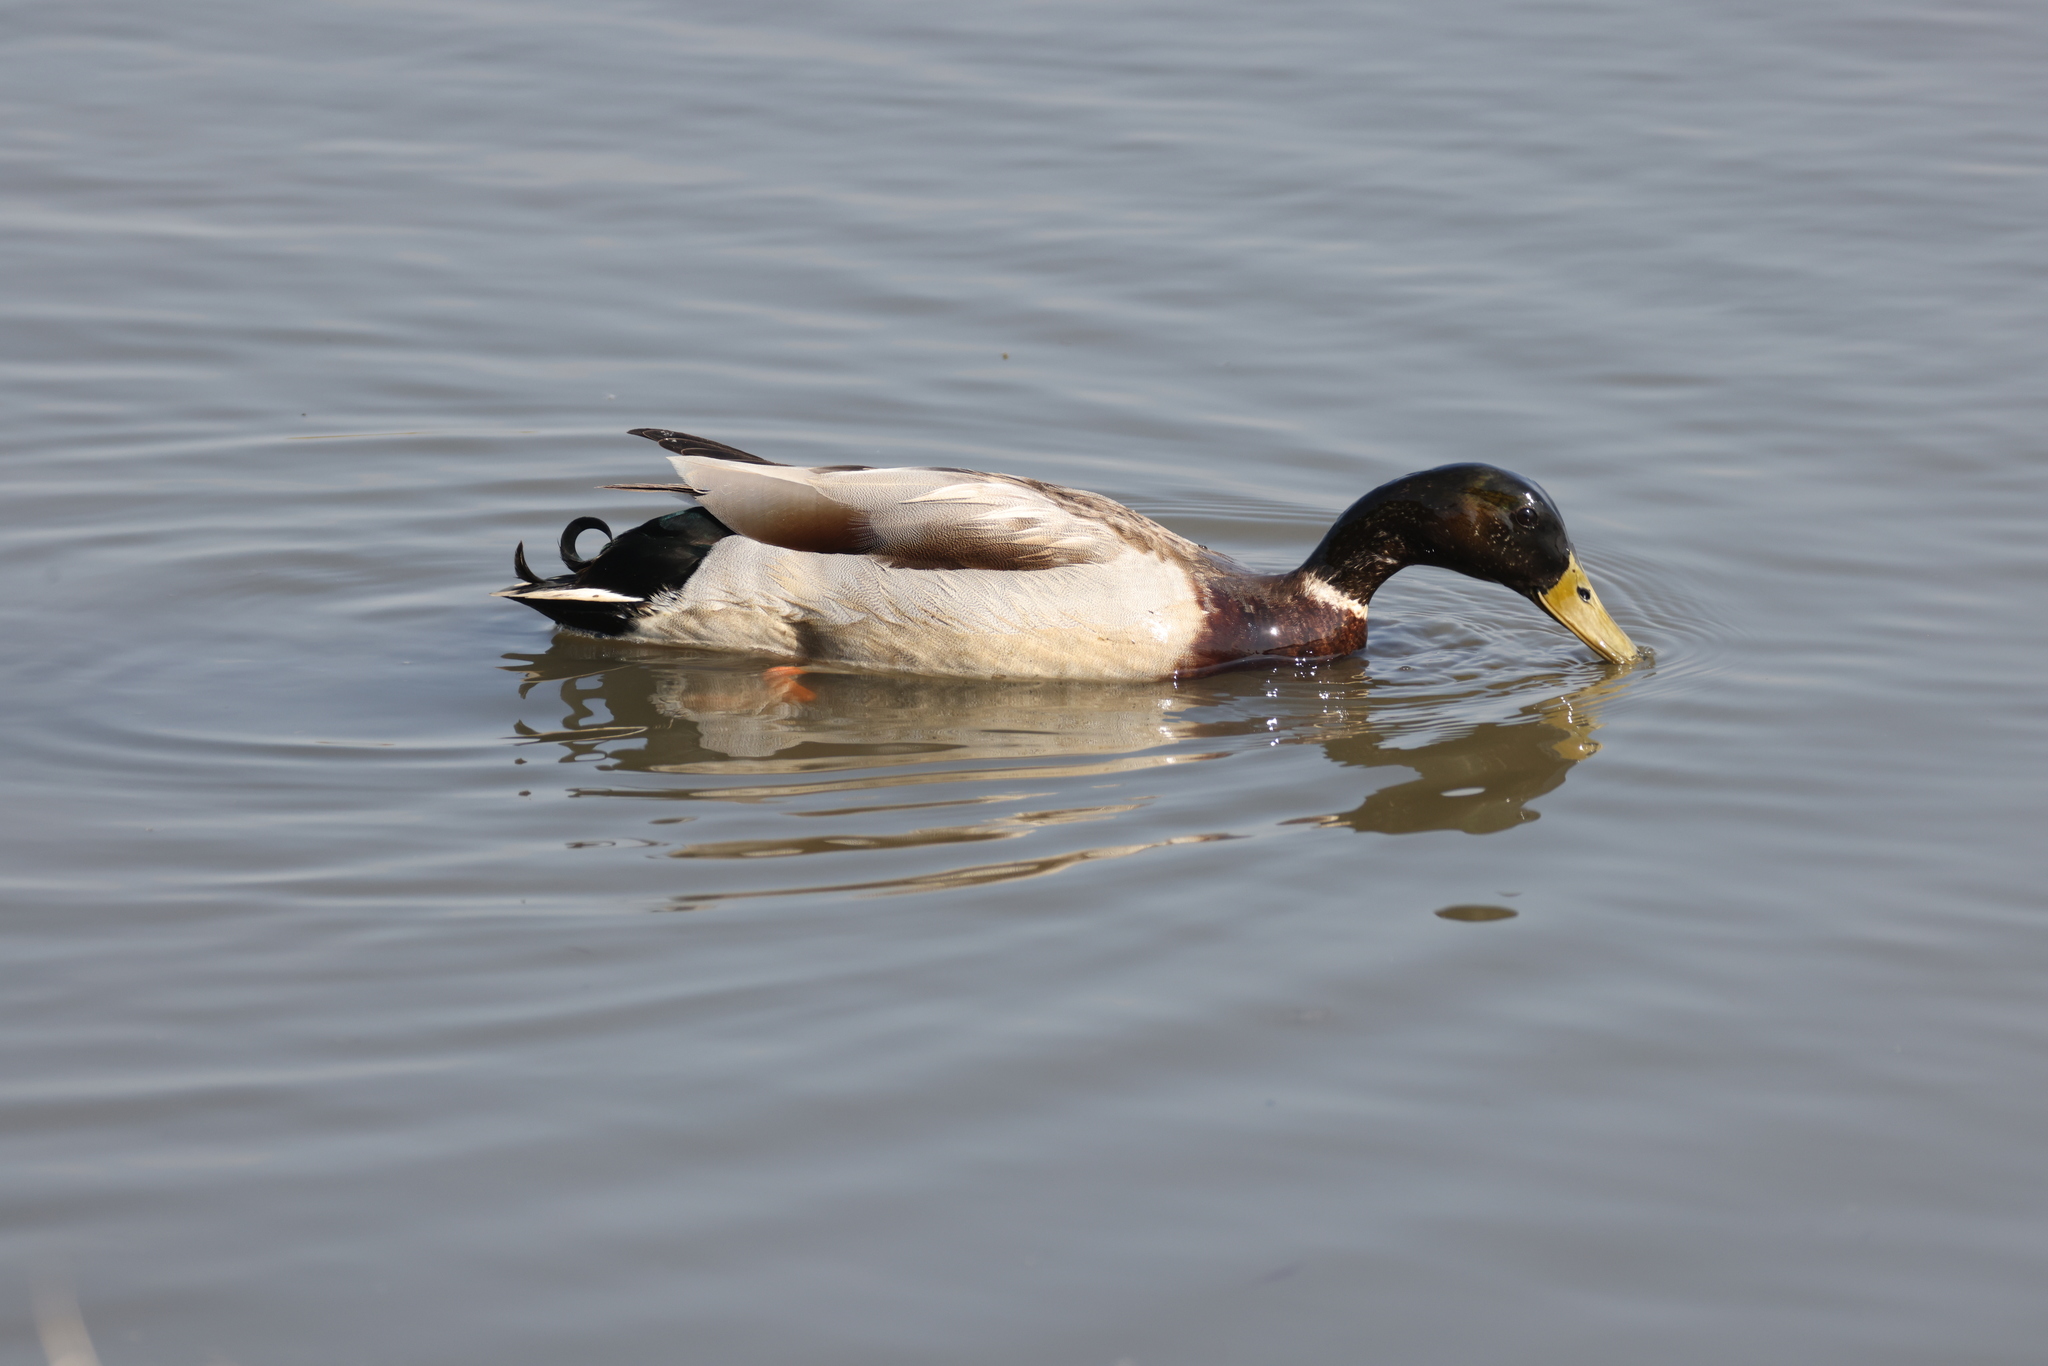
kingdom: Animalia
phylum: Chordata
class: Aves
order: Anseriformes
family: Anatidae
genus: Anas
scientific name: Anas platyrhynchos
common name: Mallard
